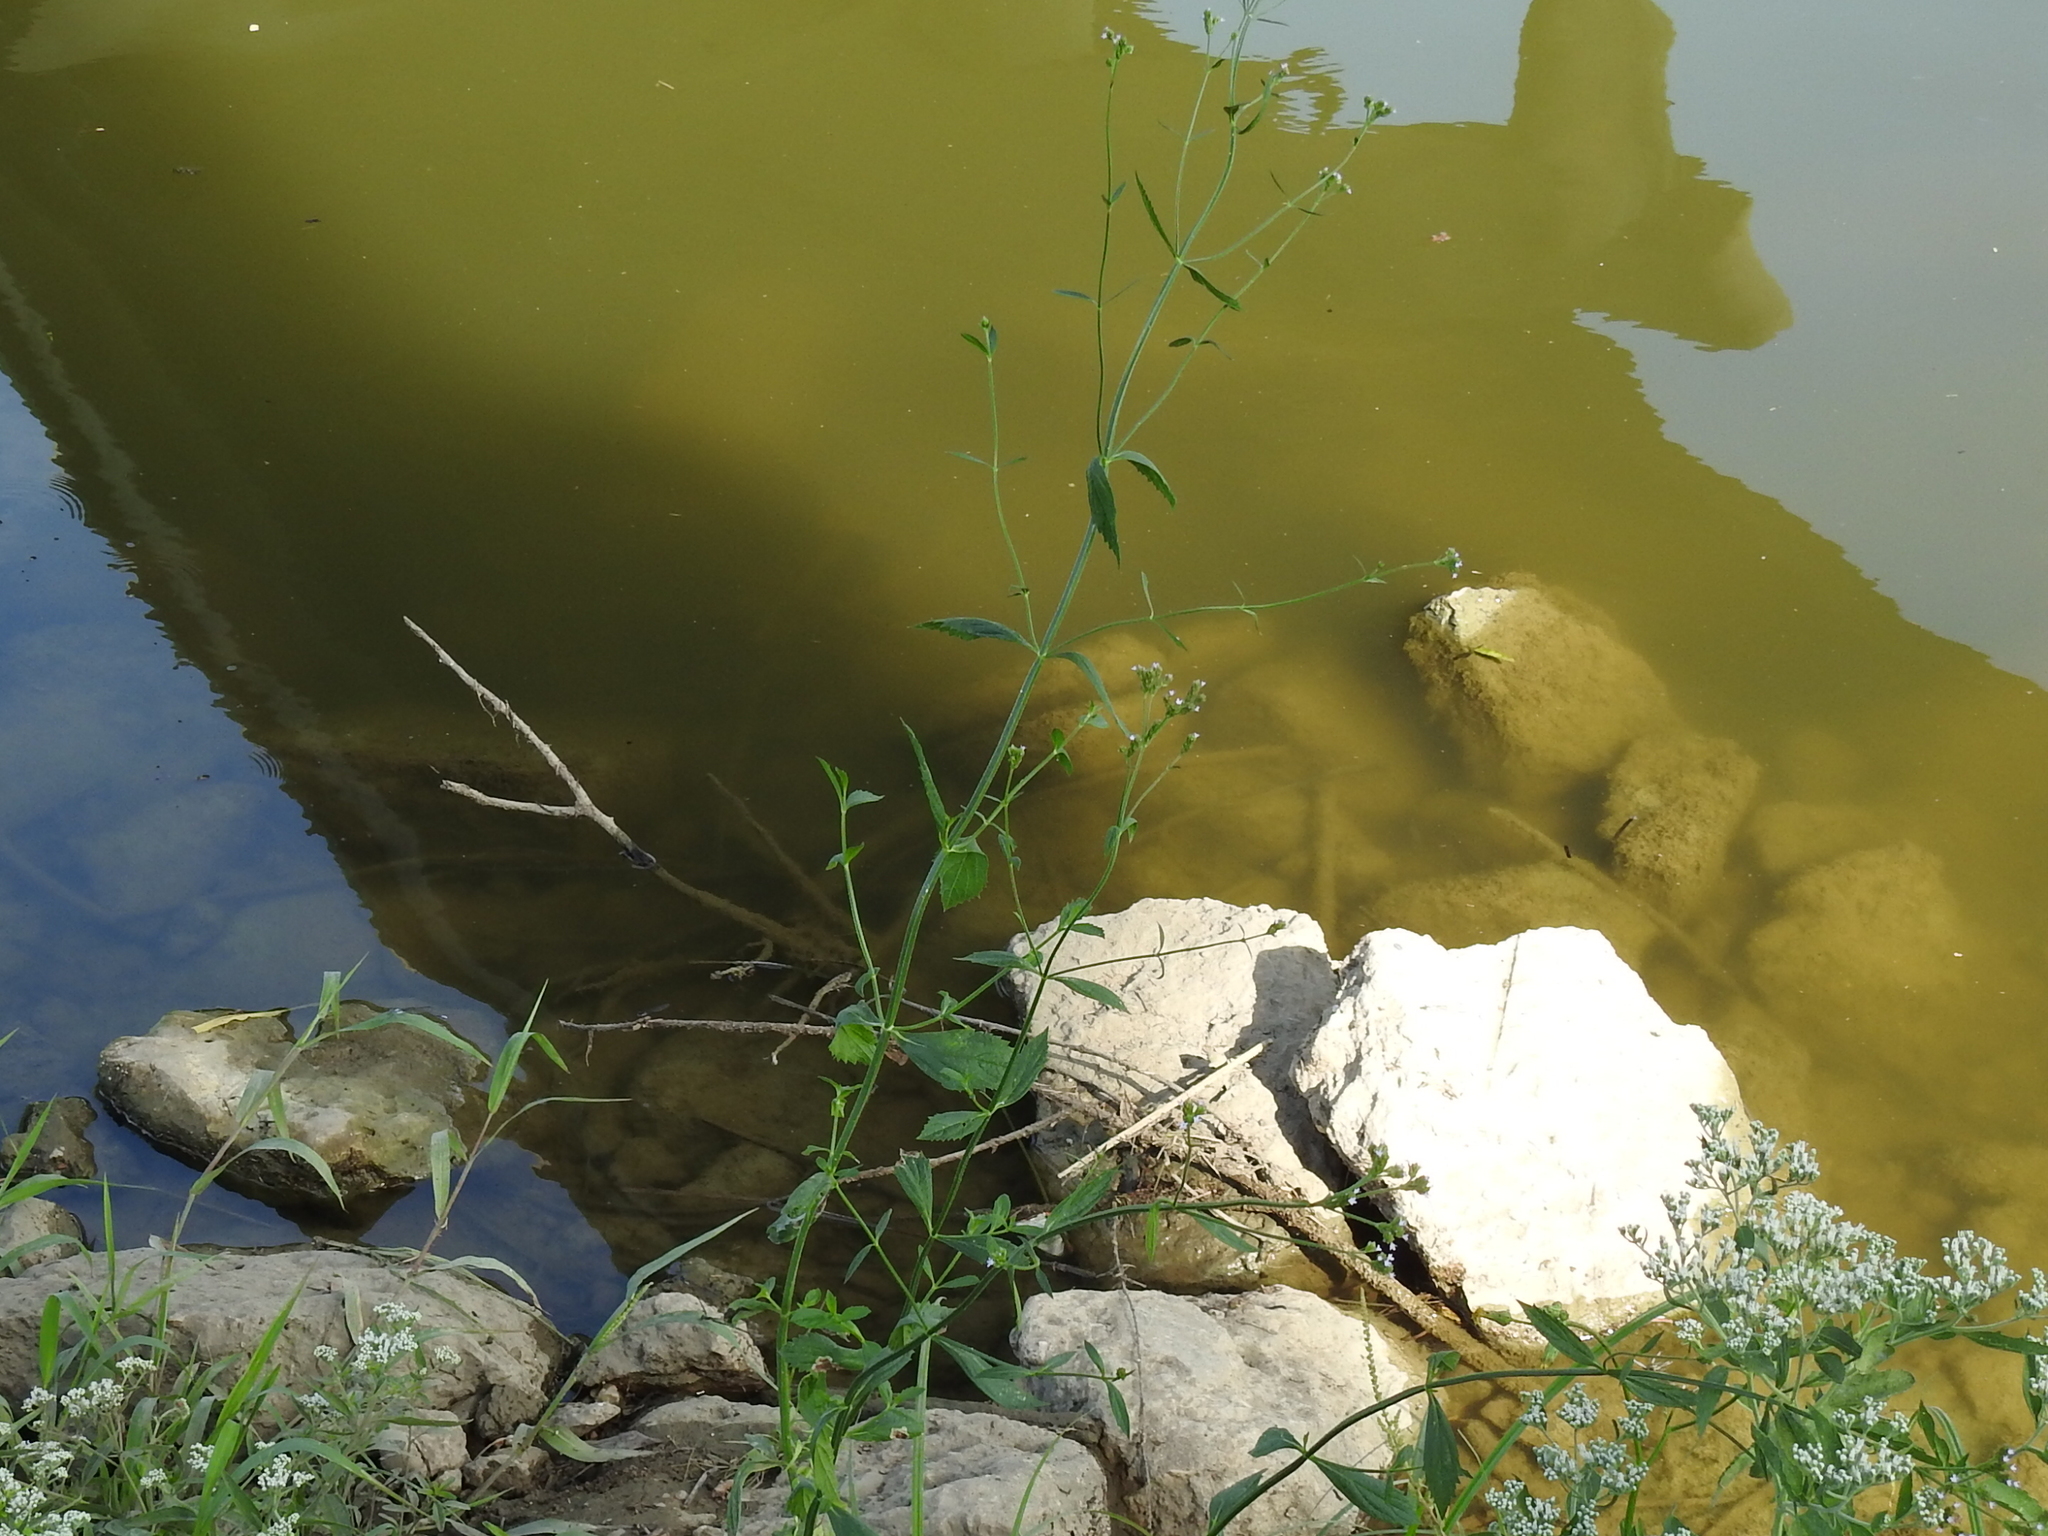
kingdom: Plantae
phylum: Tracheophyta
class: Magnoliopsida
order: Lamiales
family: Verbenaceae
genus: Verbena
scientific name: Verbena brasiliensis
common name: Brazilian vervain
